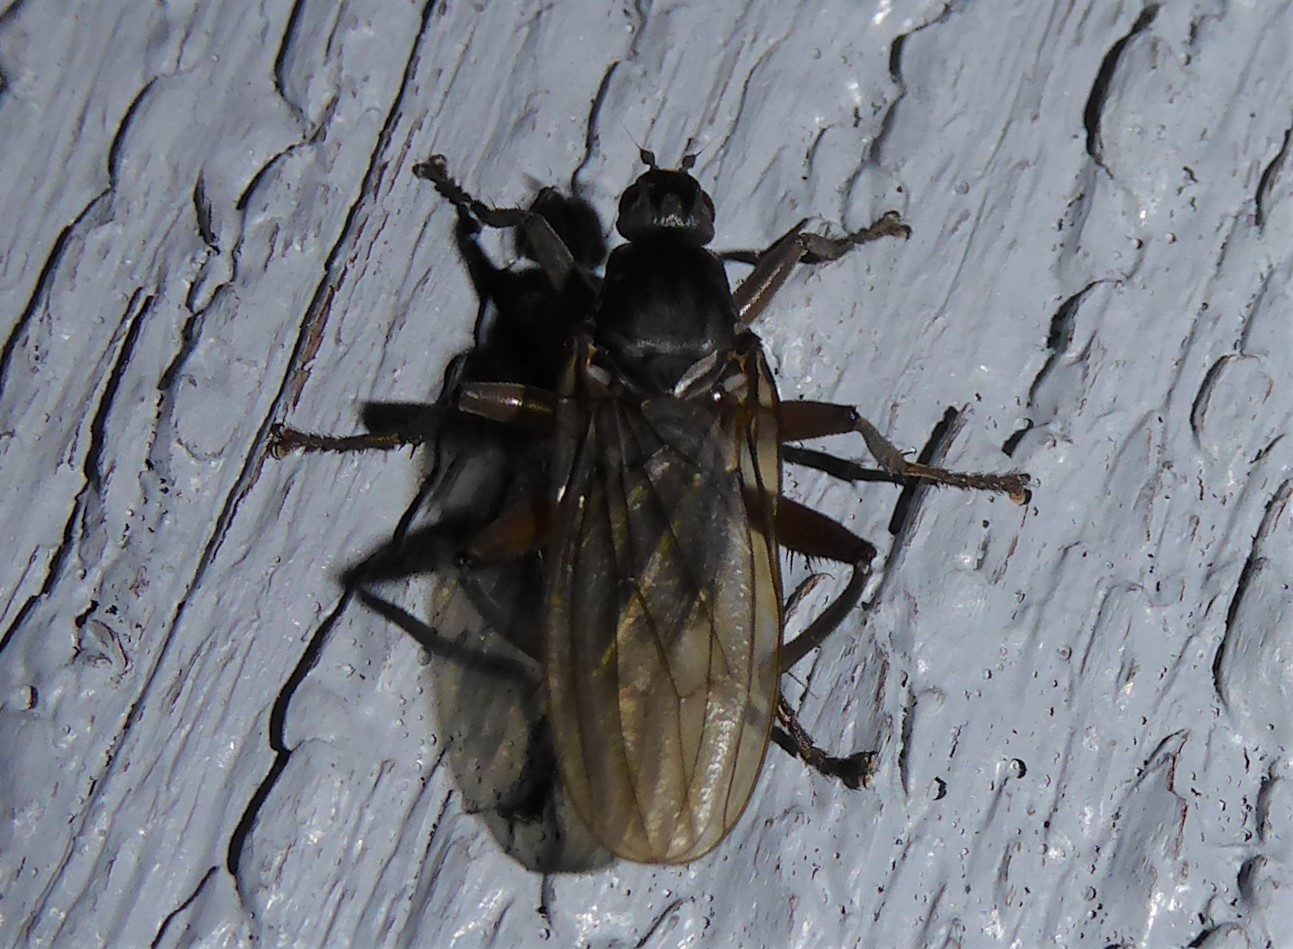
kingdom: Animalia
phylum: Arthropoda
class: Insecta
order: Diptera
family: Coelopidae
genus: Baeopterus
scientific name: Baeopterus philpotti
